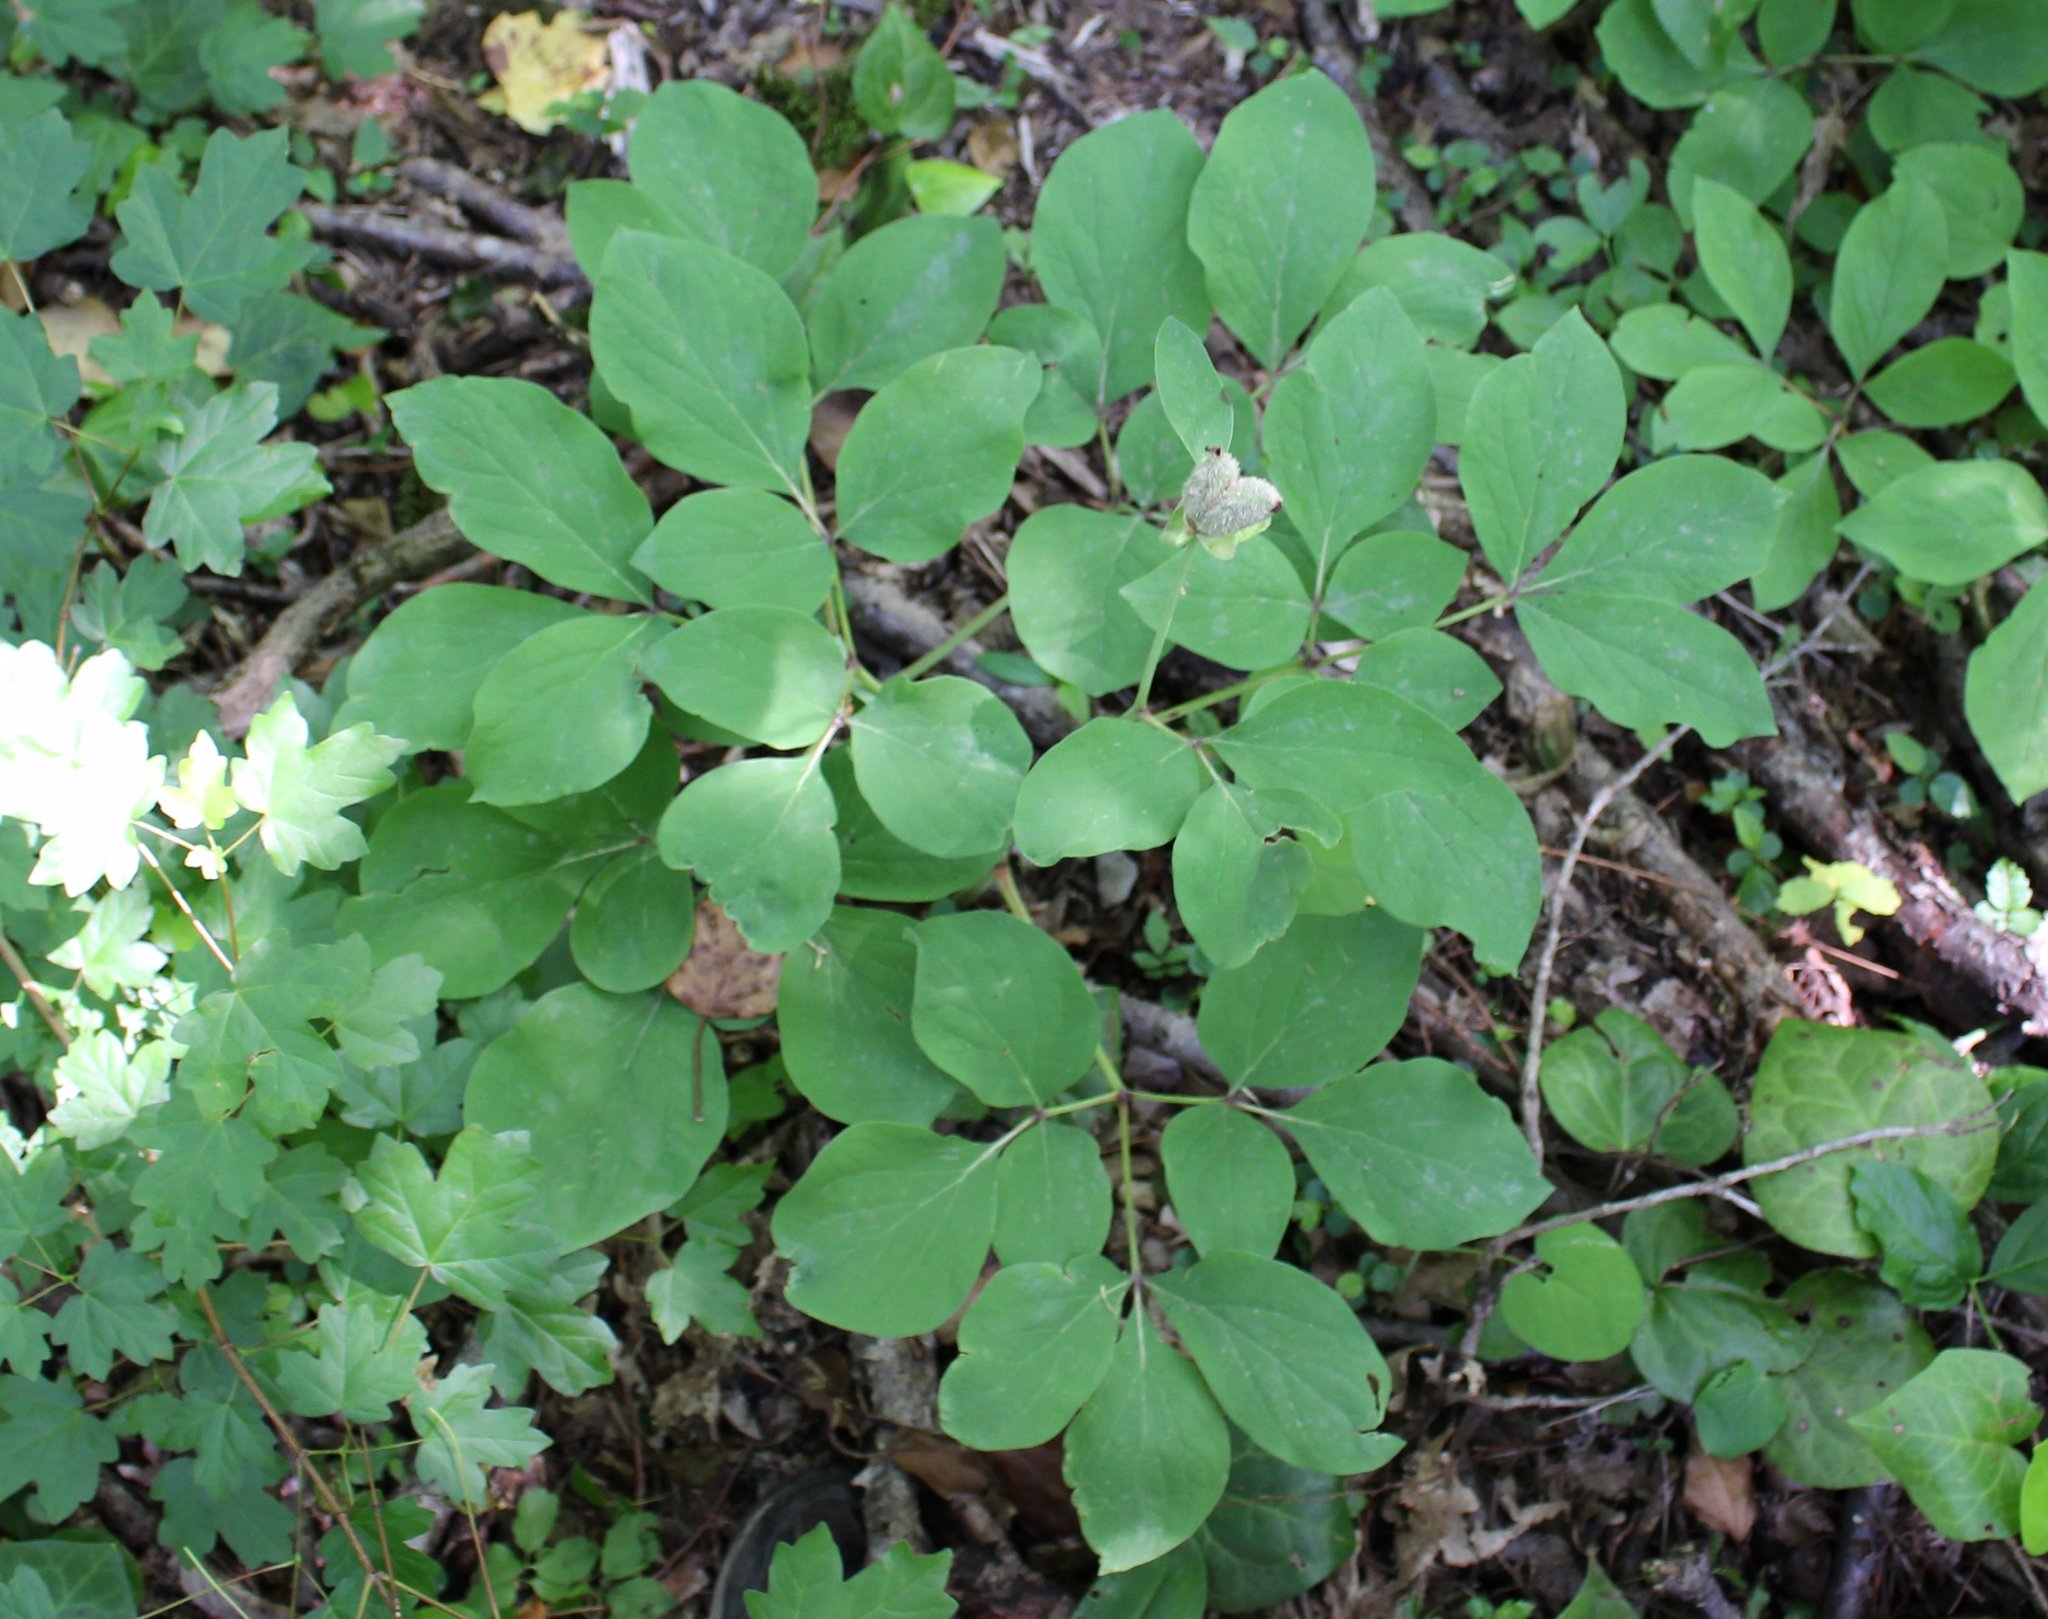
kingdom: Plantae
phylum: Tracheophyta
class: Magnoliopsida
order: Saxifragales
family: Paeoniaceae
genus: Paeonia
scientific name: Paeonia caucasica
